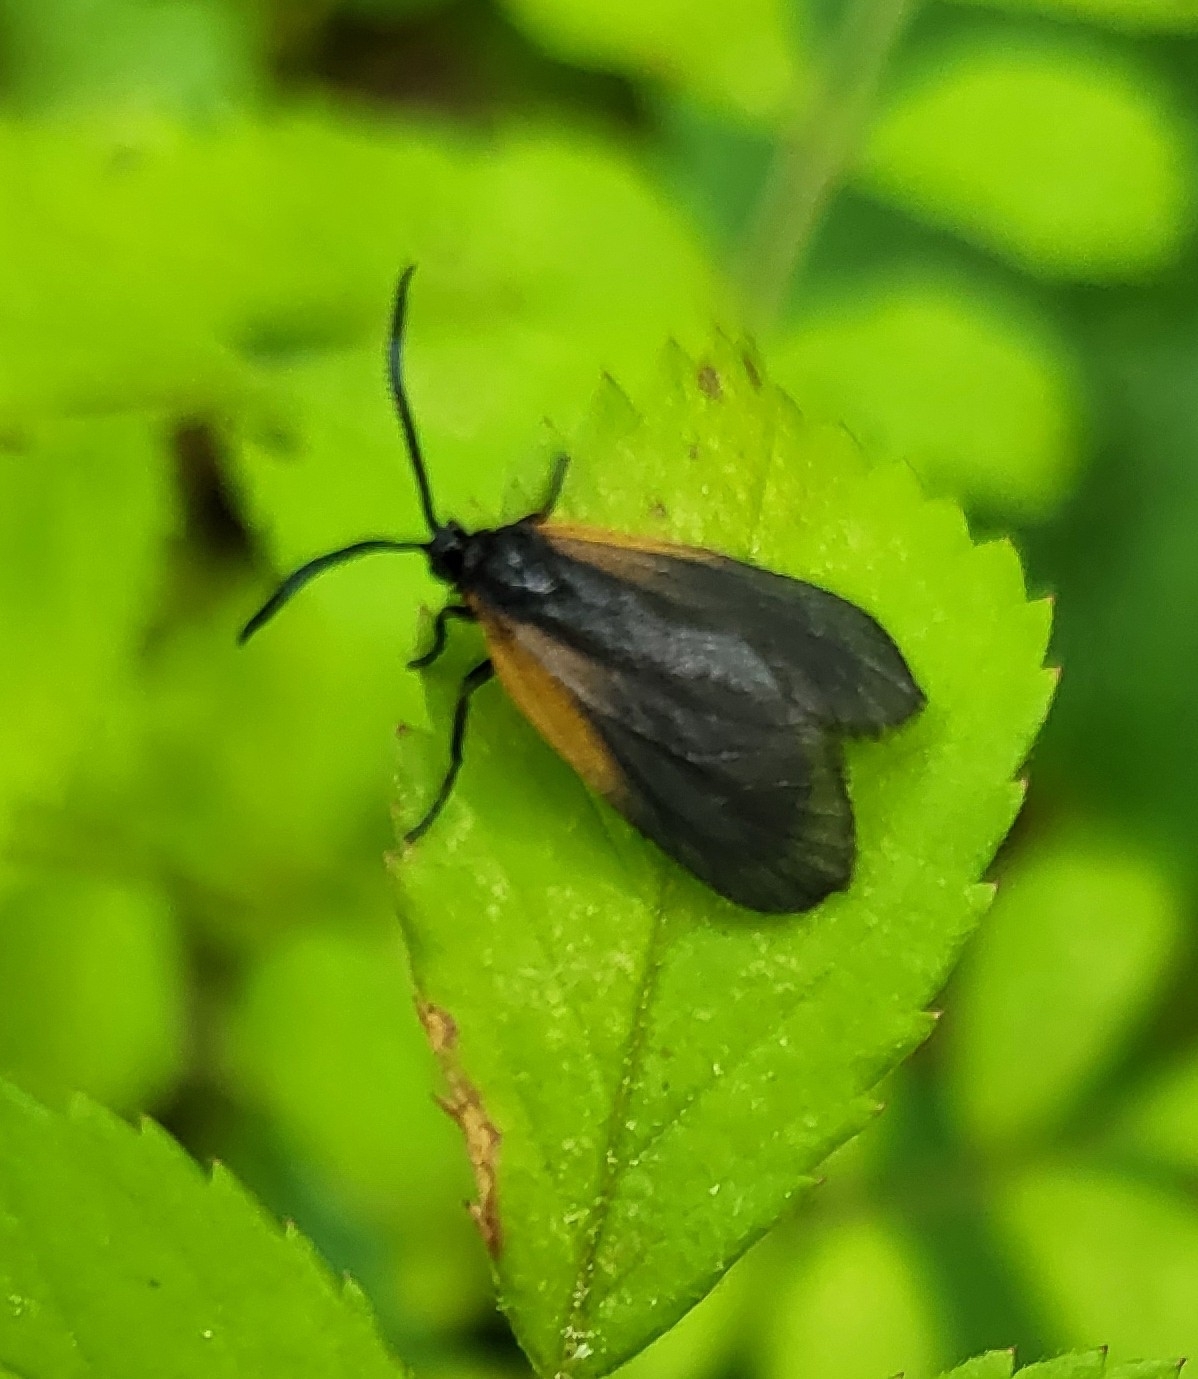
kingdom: Animalia
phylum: Arthropoda
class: Insecta
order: Lepidoptera
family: Zygaenidae
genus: Malthaca
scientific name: Malthaca dimidiata
